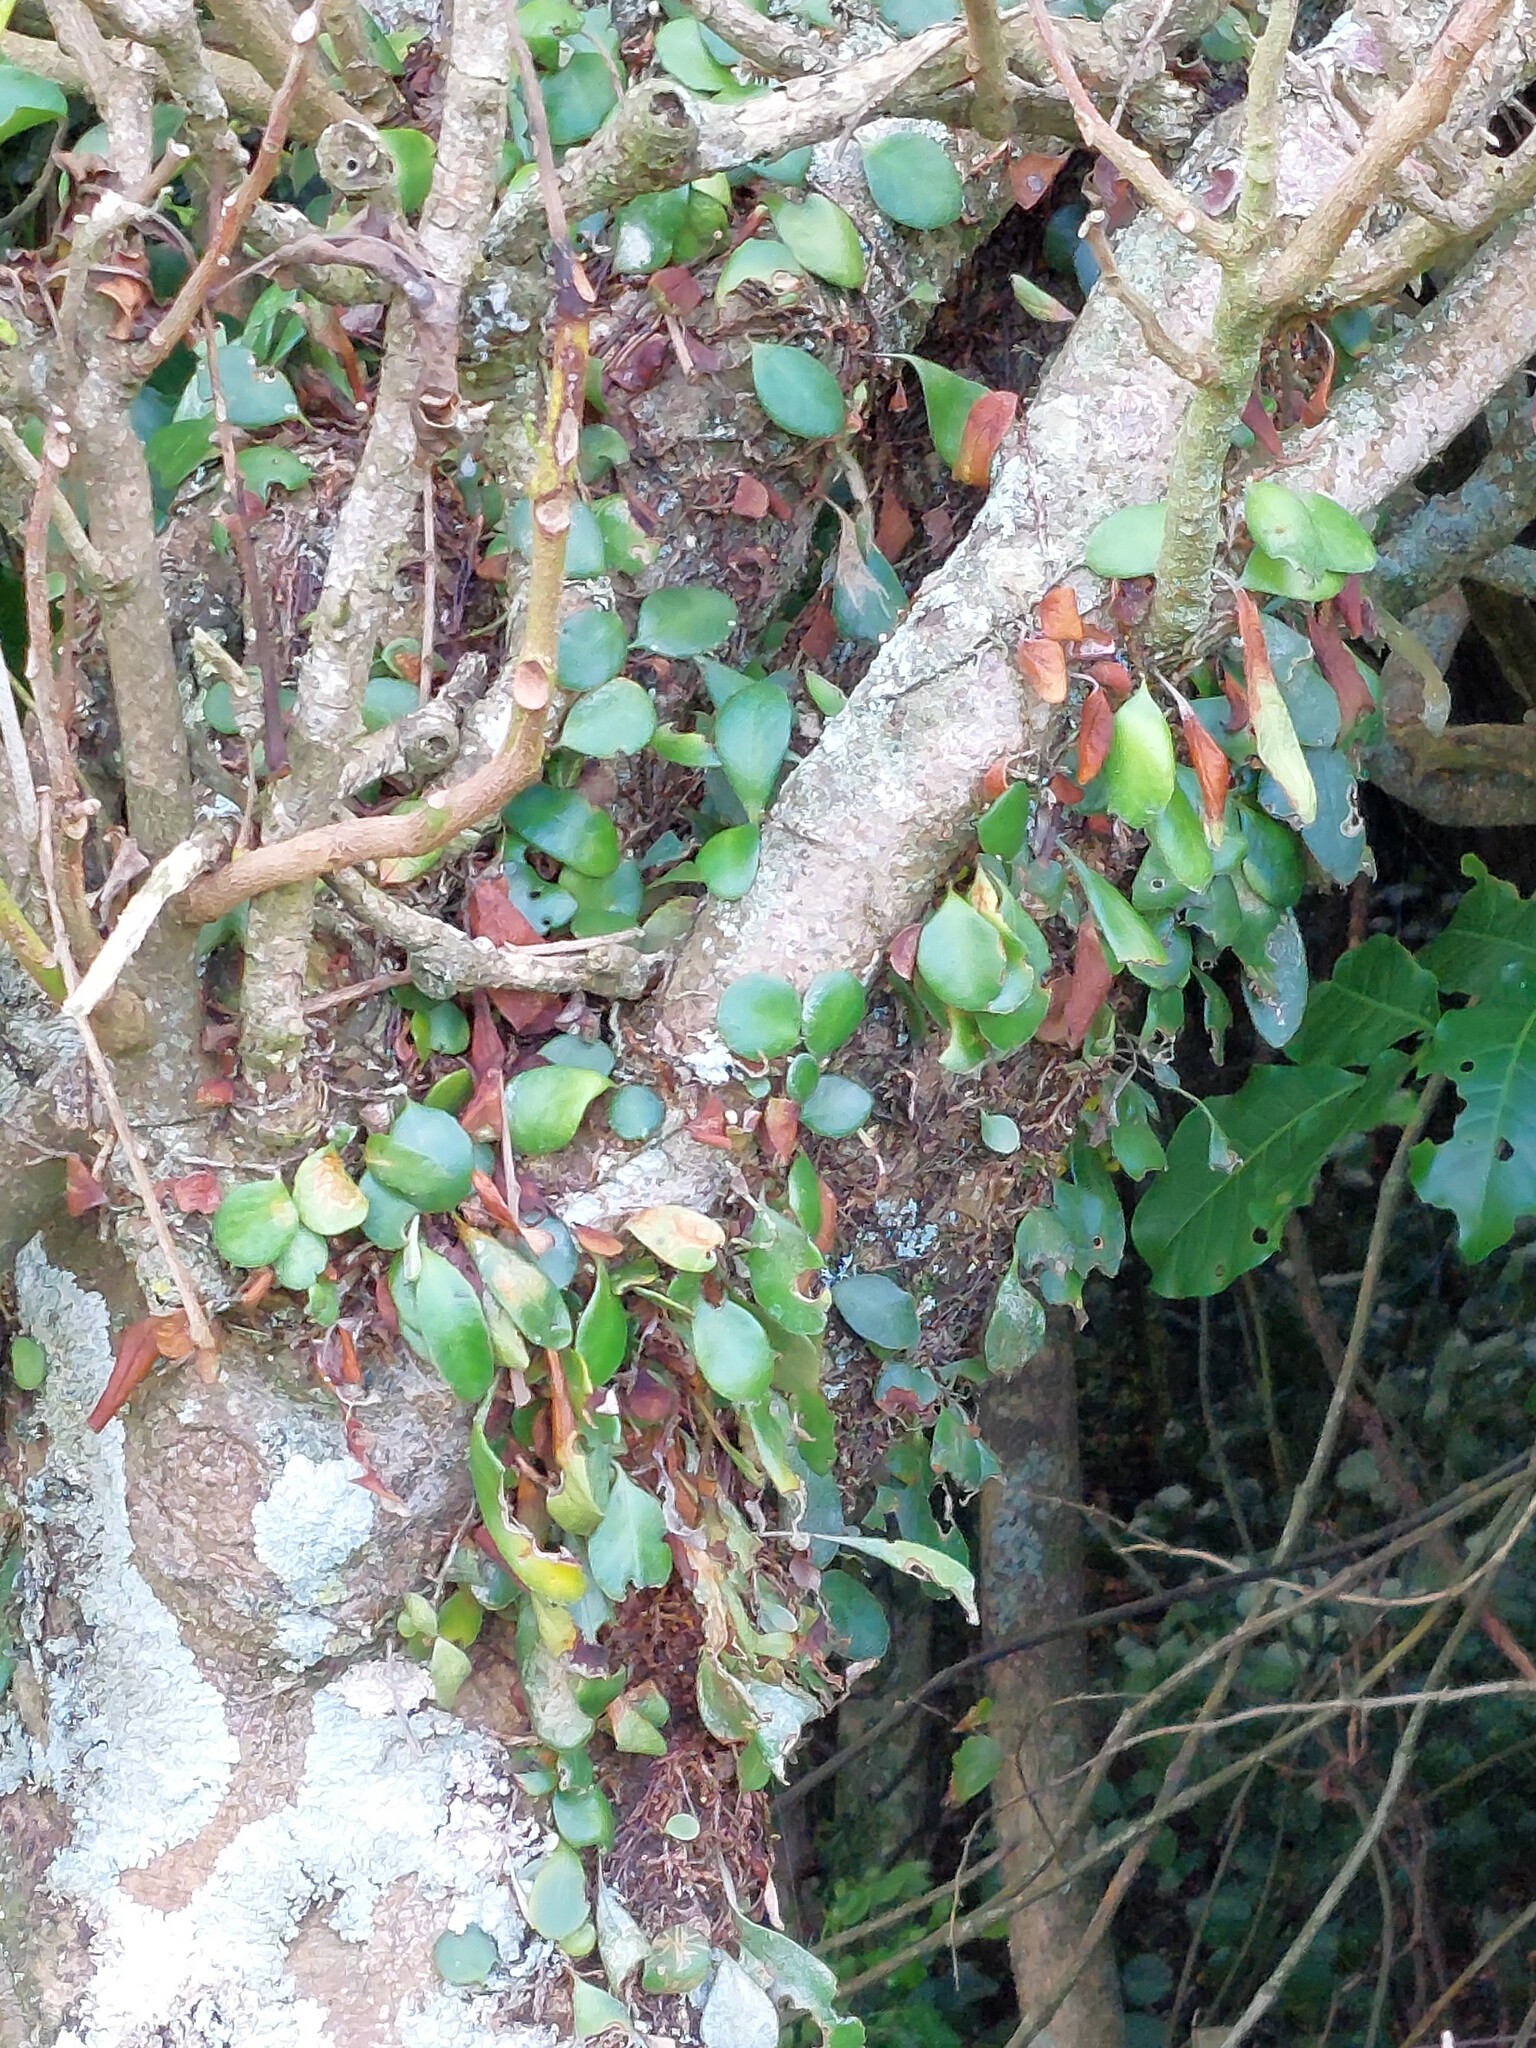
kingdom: Plantae
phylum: Tracheophyta
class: Polypodiopsida
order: Polypodiales
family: Polypodiaceae
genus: Pyrrosia
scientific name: Pyrrosia eleagnifolia
